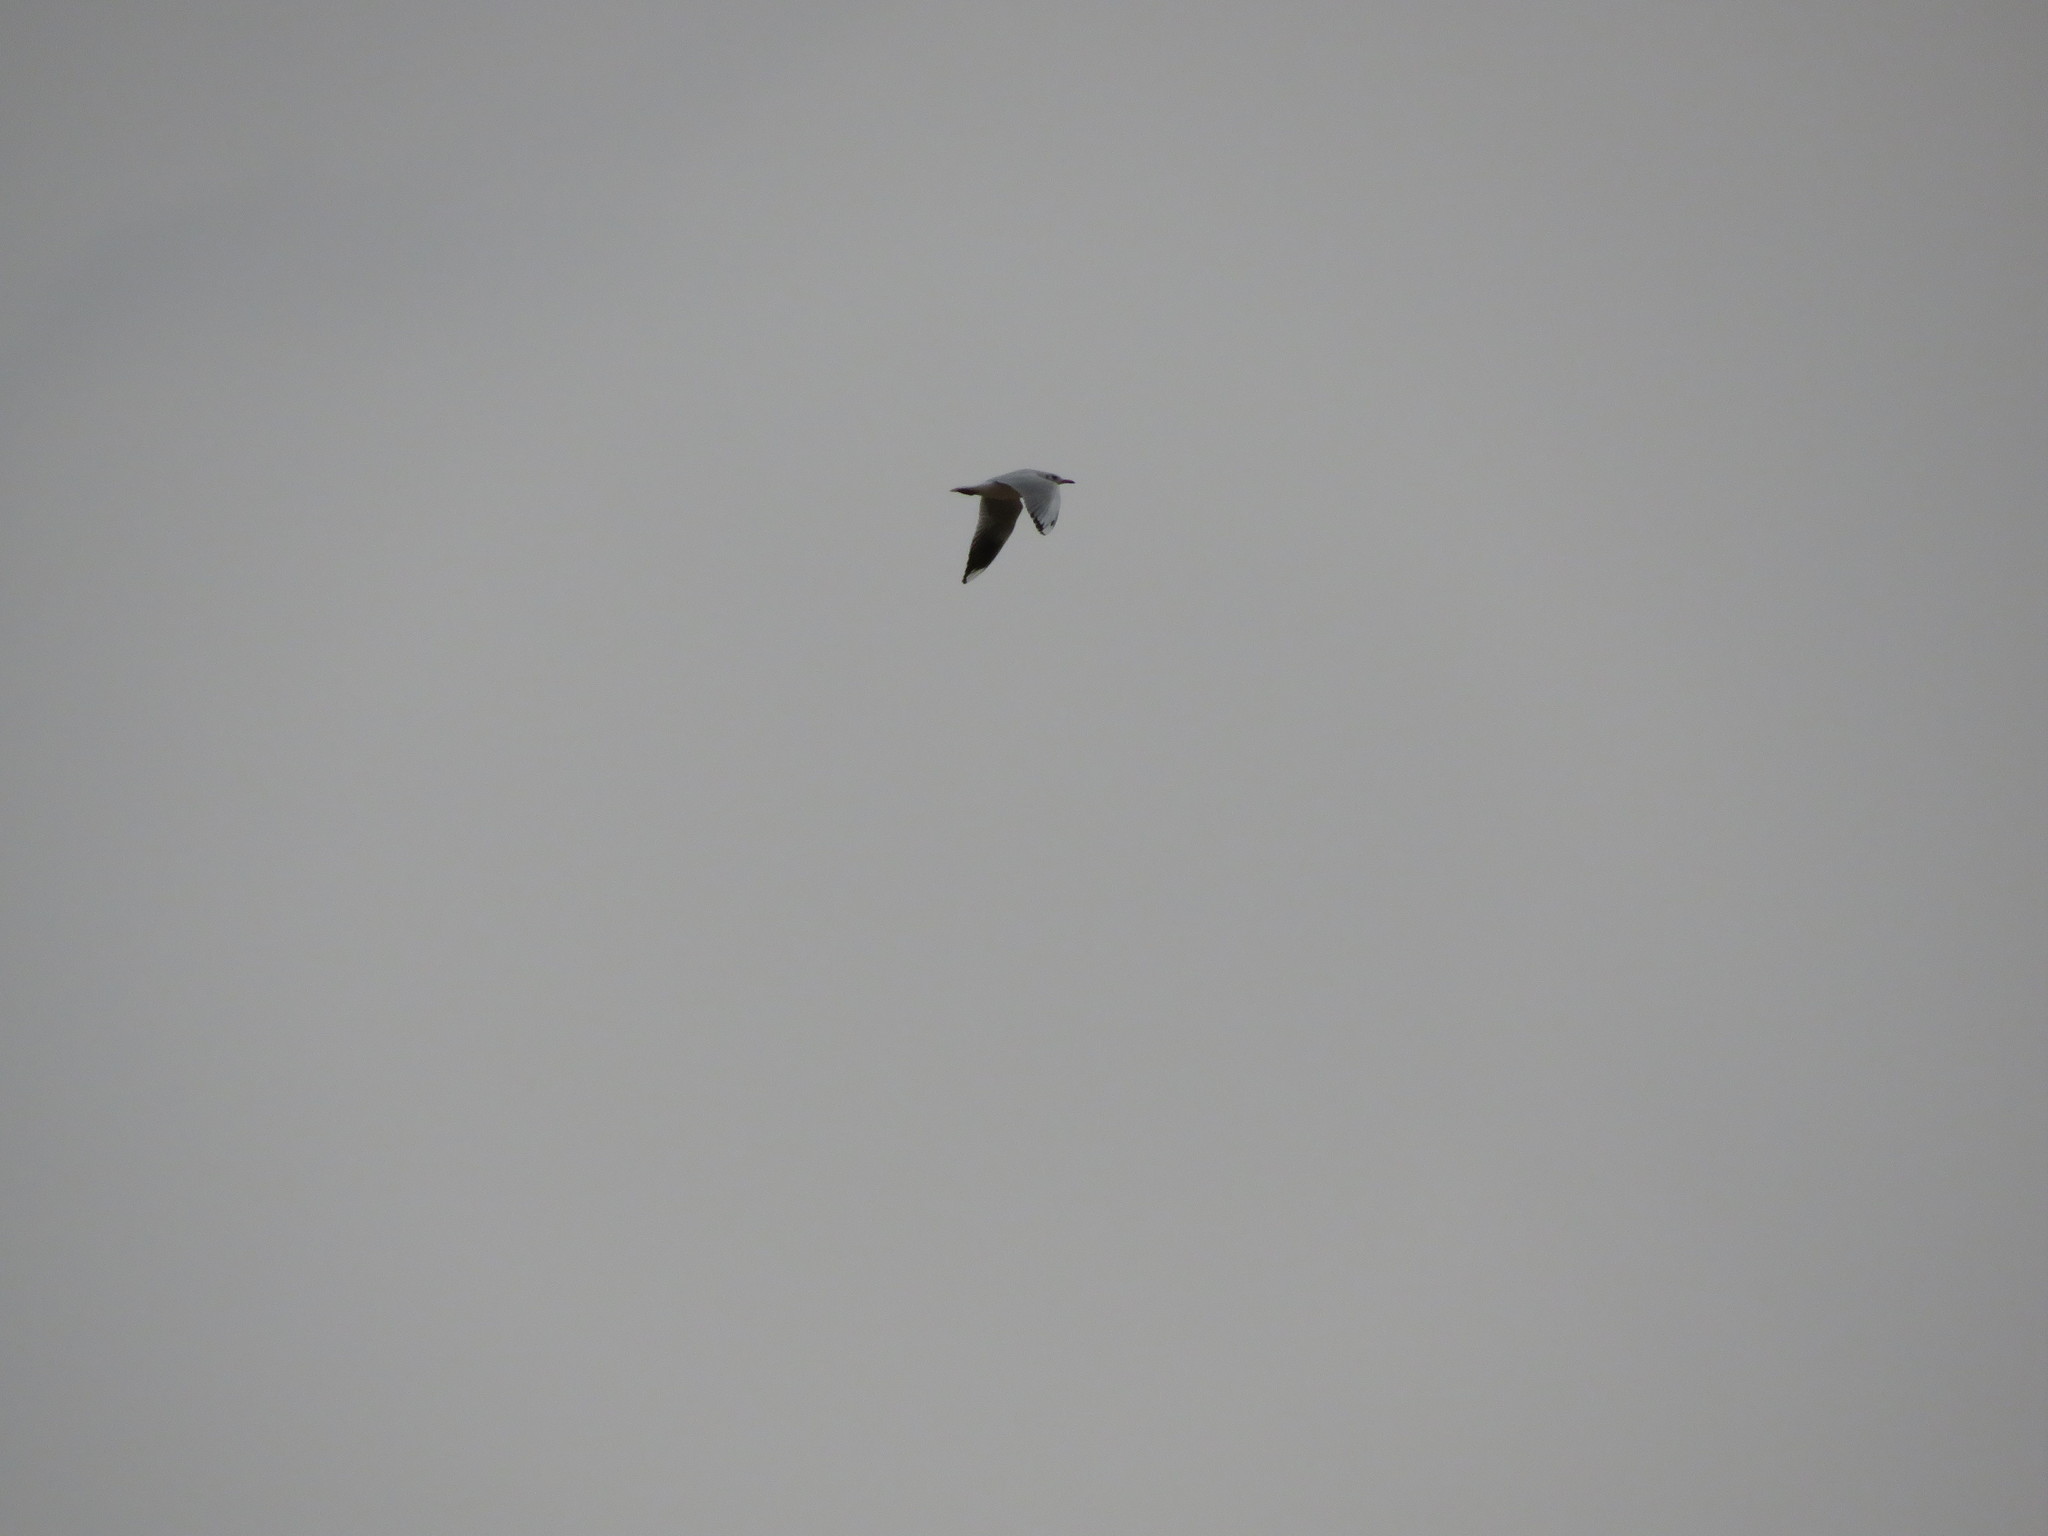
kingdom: Animalia
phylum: Chordata
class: Aves
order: Charadriiformes
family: Laridae
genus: Chroicocephalus
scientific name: Chroicocephalus maculipennis
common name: Brown-hooded gull
